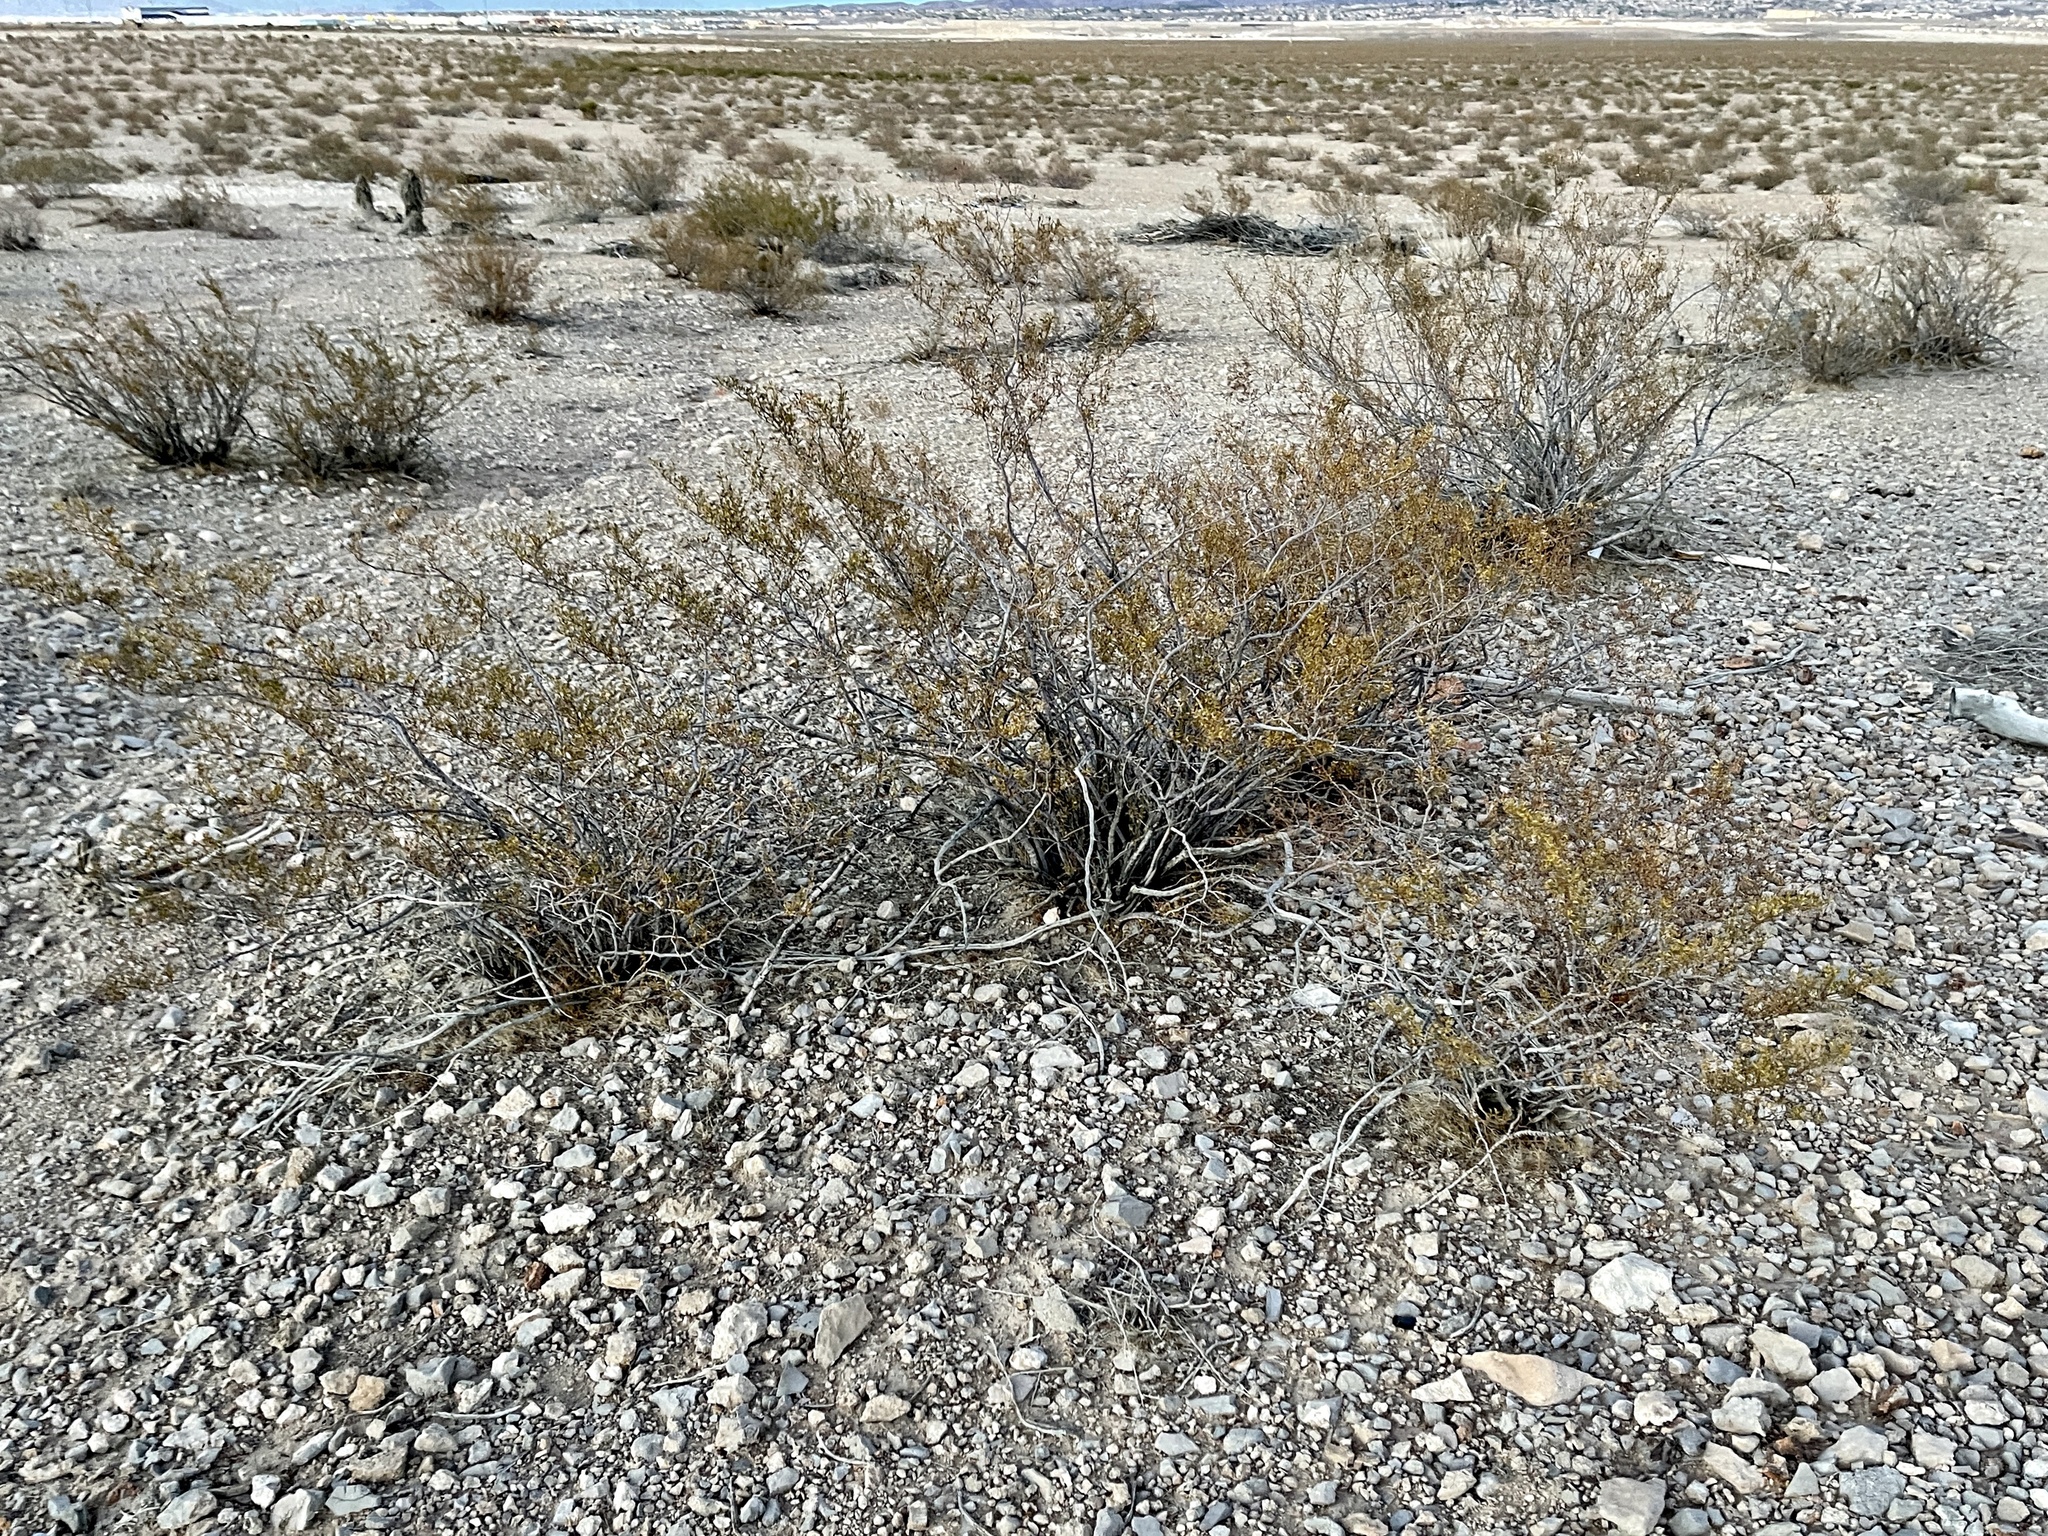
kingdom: Plantae
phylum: Tracheophyta
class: Magnoliopsida
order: Zygophyllales
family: Zygophyllaceae
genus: Larrea
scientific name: Larrea tridentata
